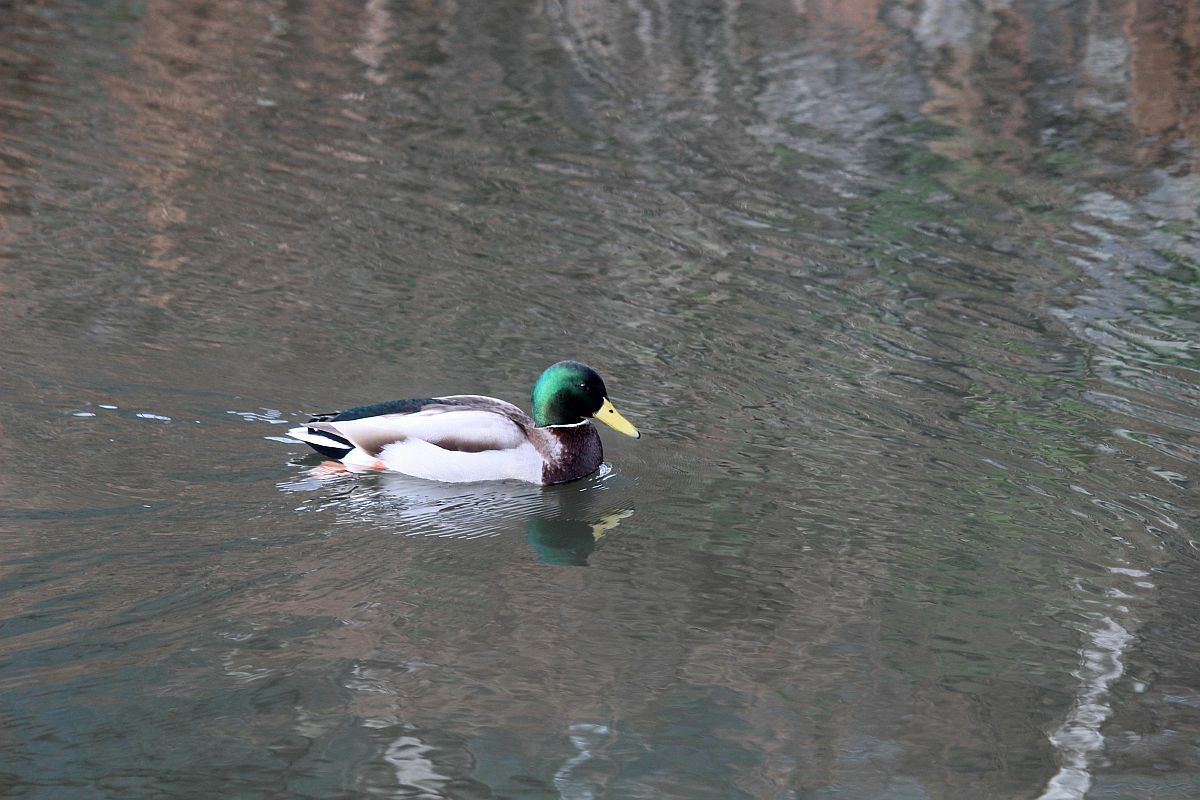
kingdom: Animalia
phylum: Chordata
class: Aves
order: Anseriformes
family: Anatidae
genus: Anas
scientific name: Anas platyrhynchos
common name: Mallard
